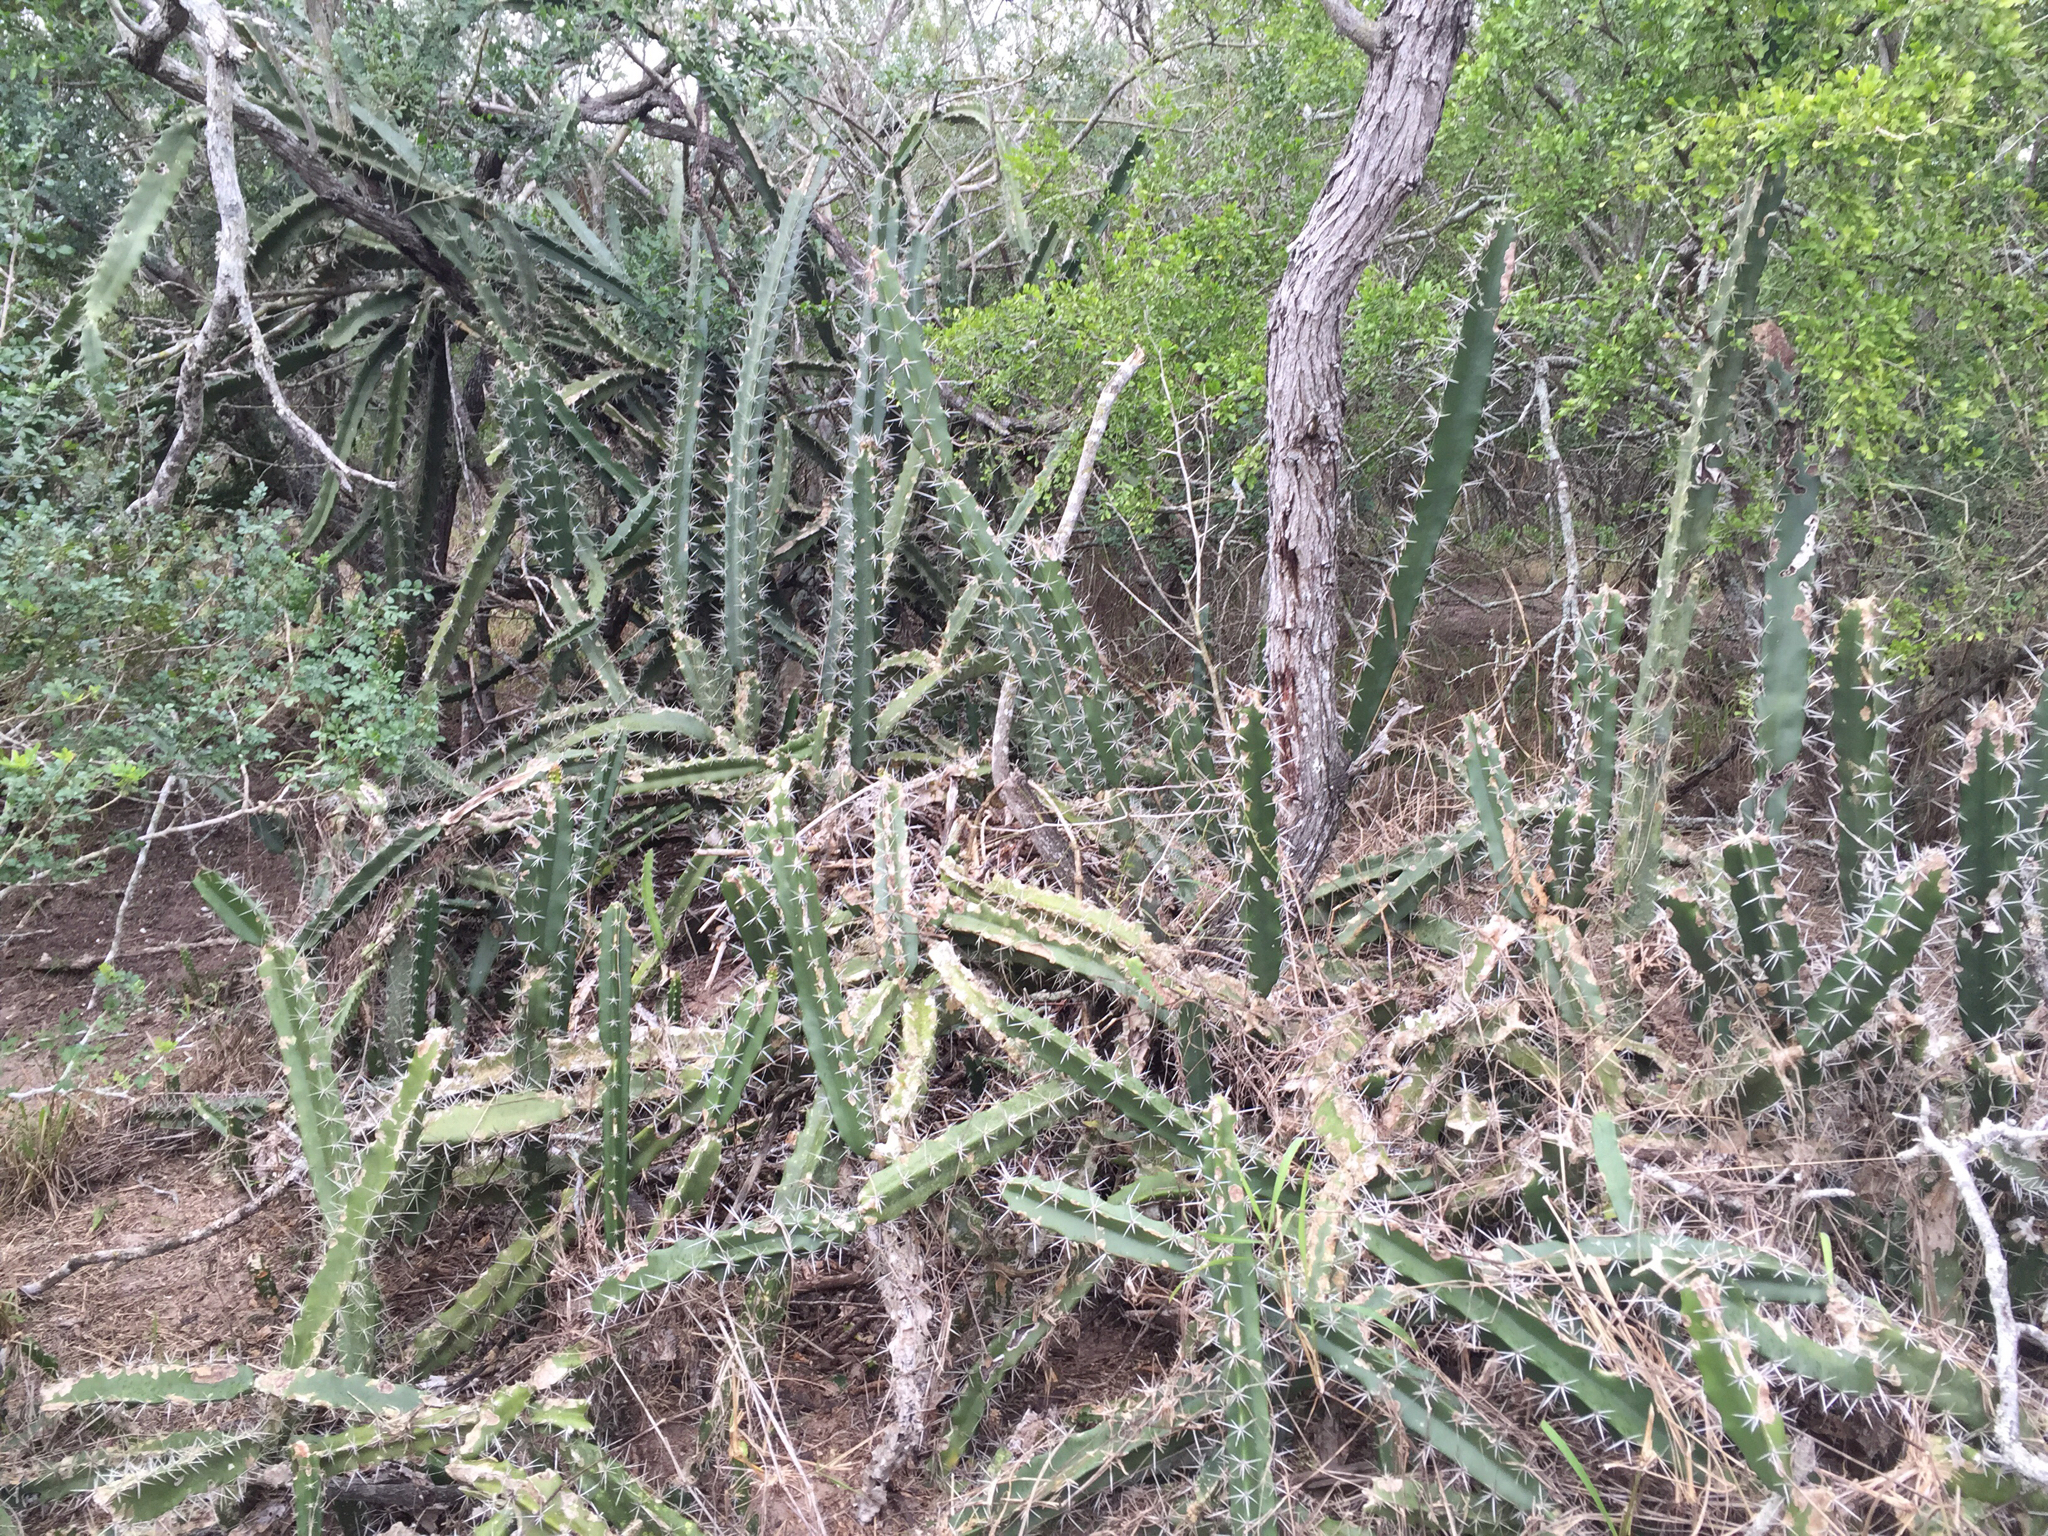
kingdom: Plantae
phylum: Tracheophyta
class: Magnoliopsida
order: Caryophyllales
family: Cactaceae
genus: Acanthocereus
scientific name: Acanthocereus tetragonus
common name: Triangle cactus
